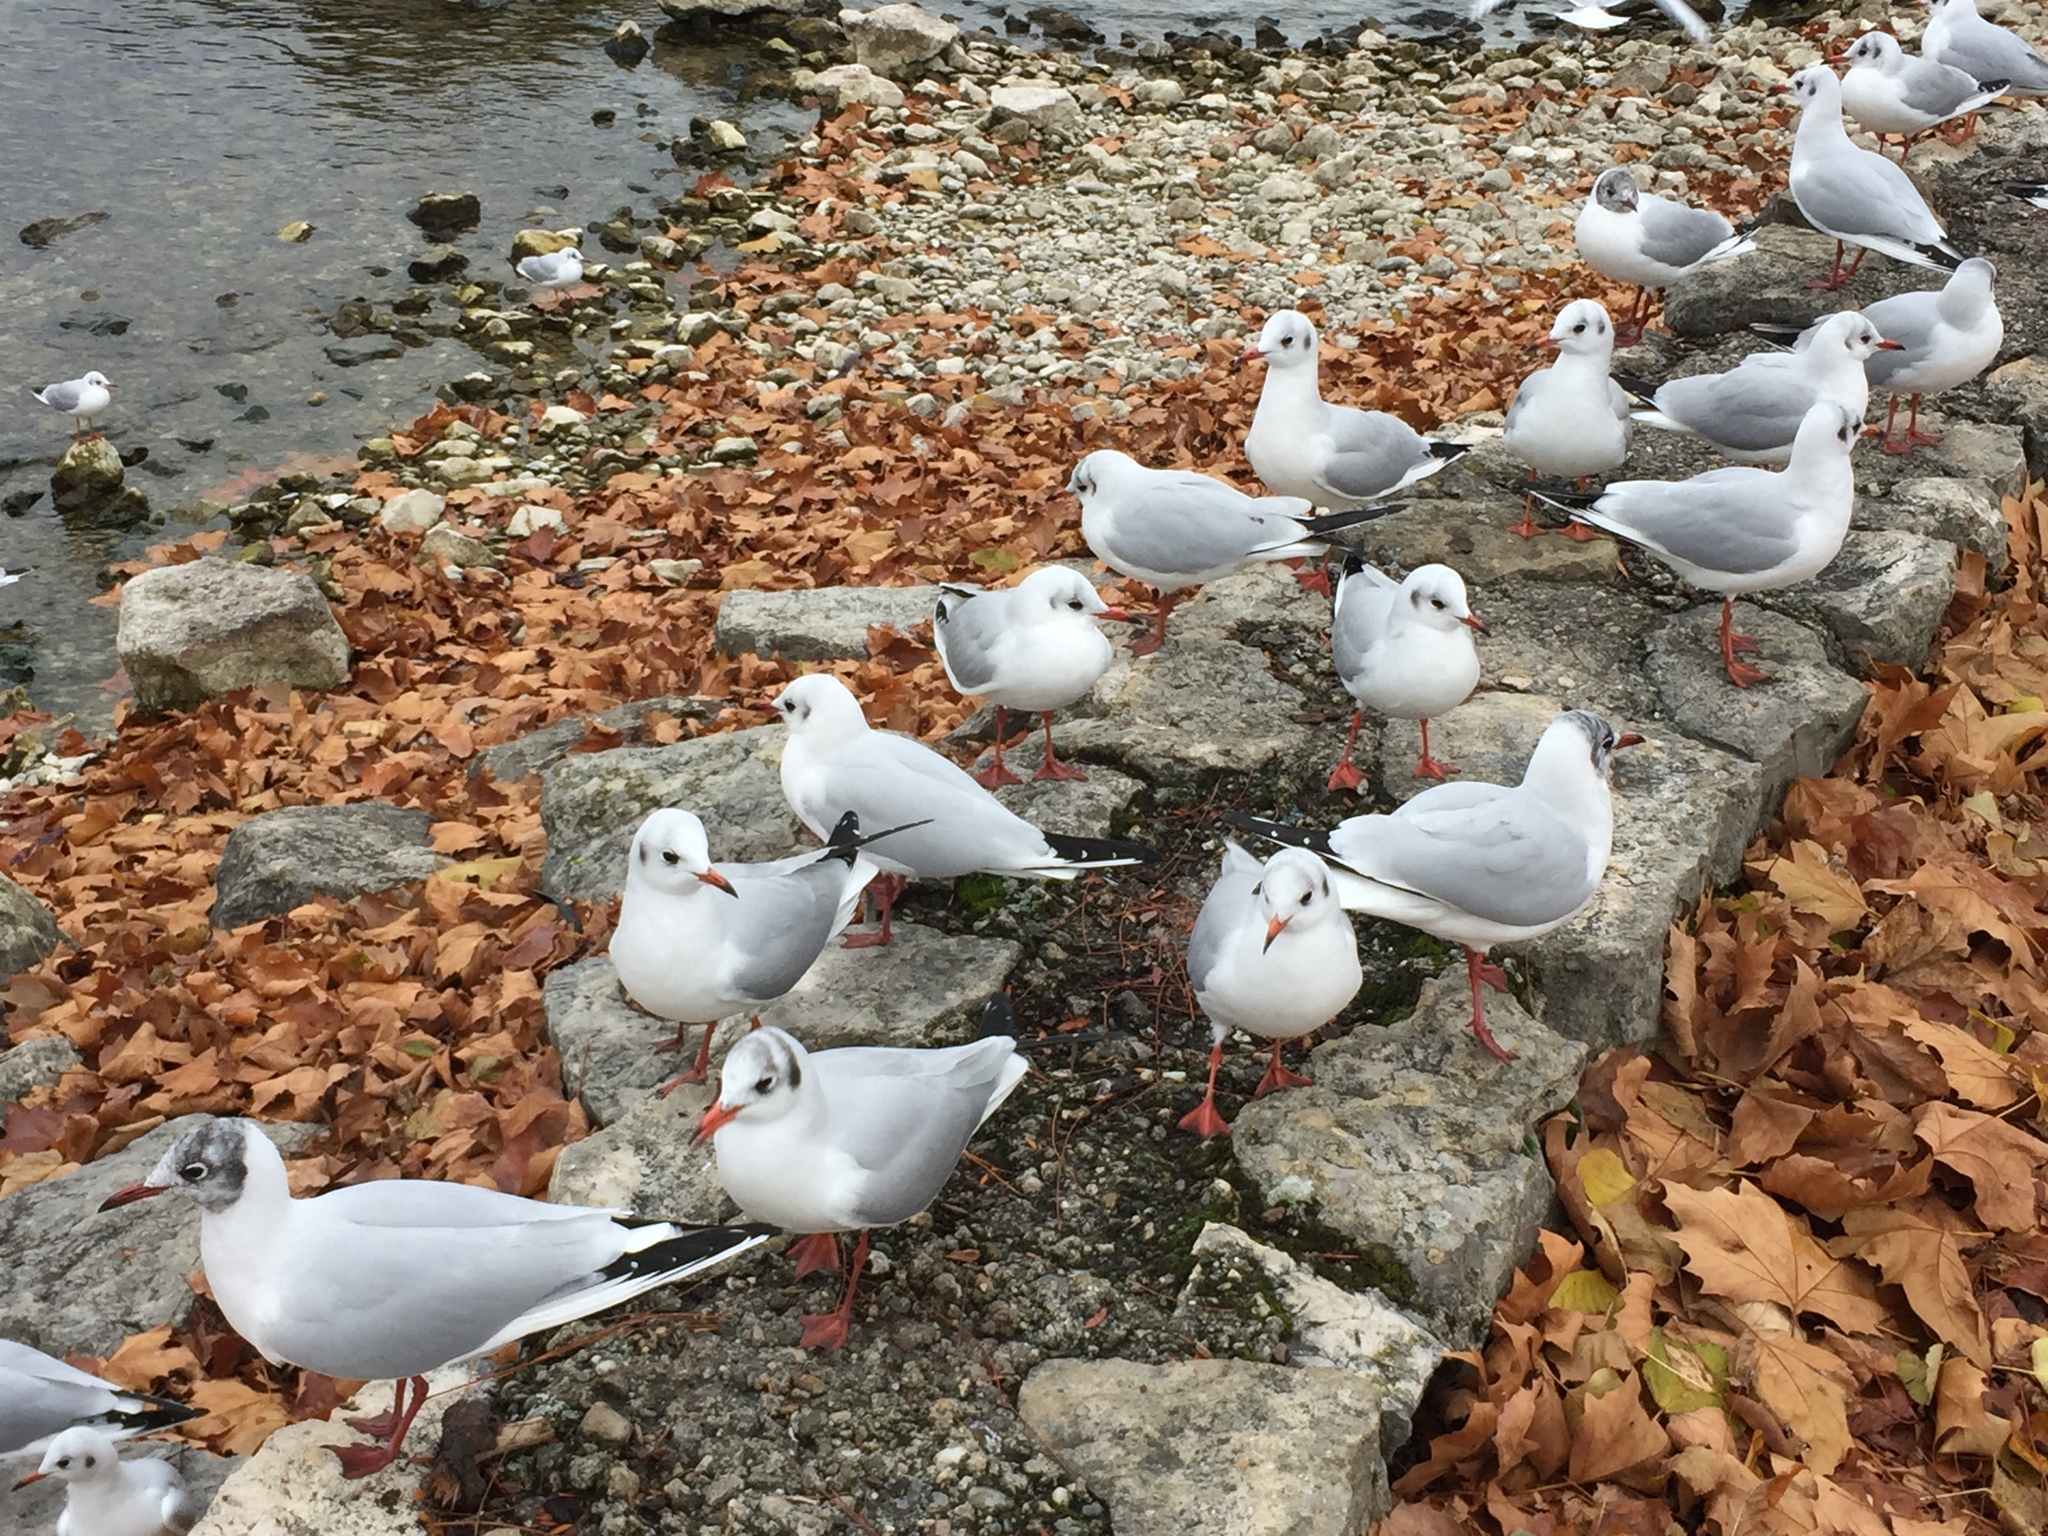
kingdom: Animalia
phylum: Chordata
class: Aves
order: Charadriiformes
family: Laridae
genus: Chroicocephalus
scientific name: Chroicocephalus ridibundus
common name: Black-headed gull
